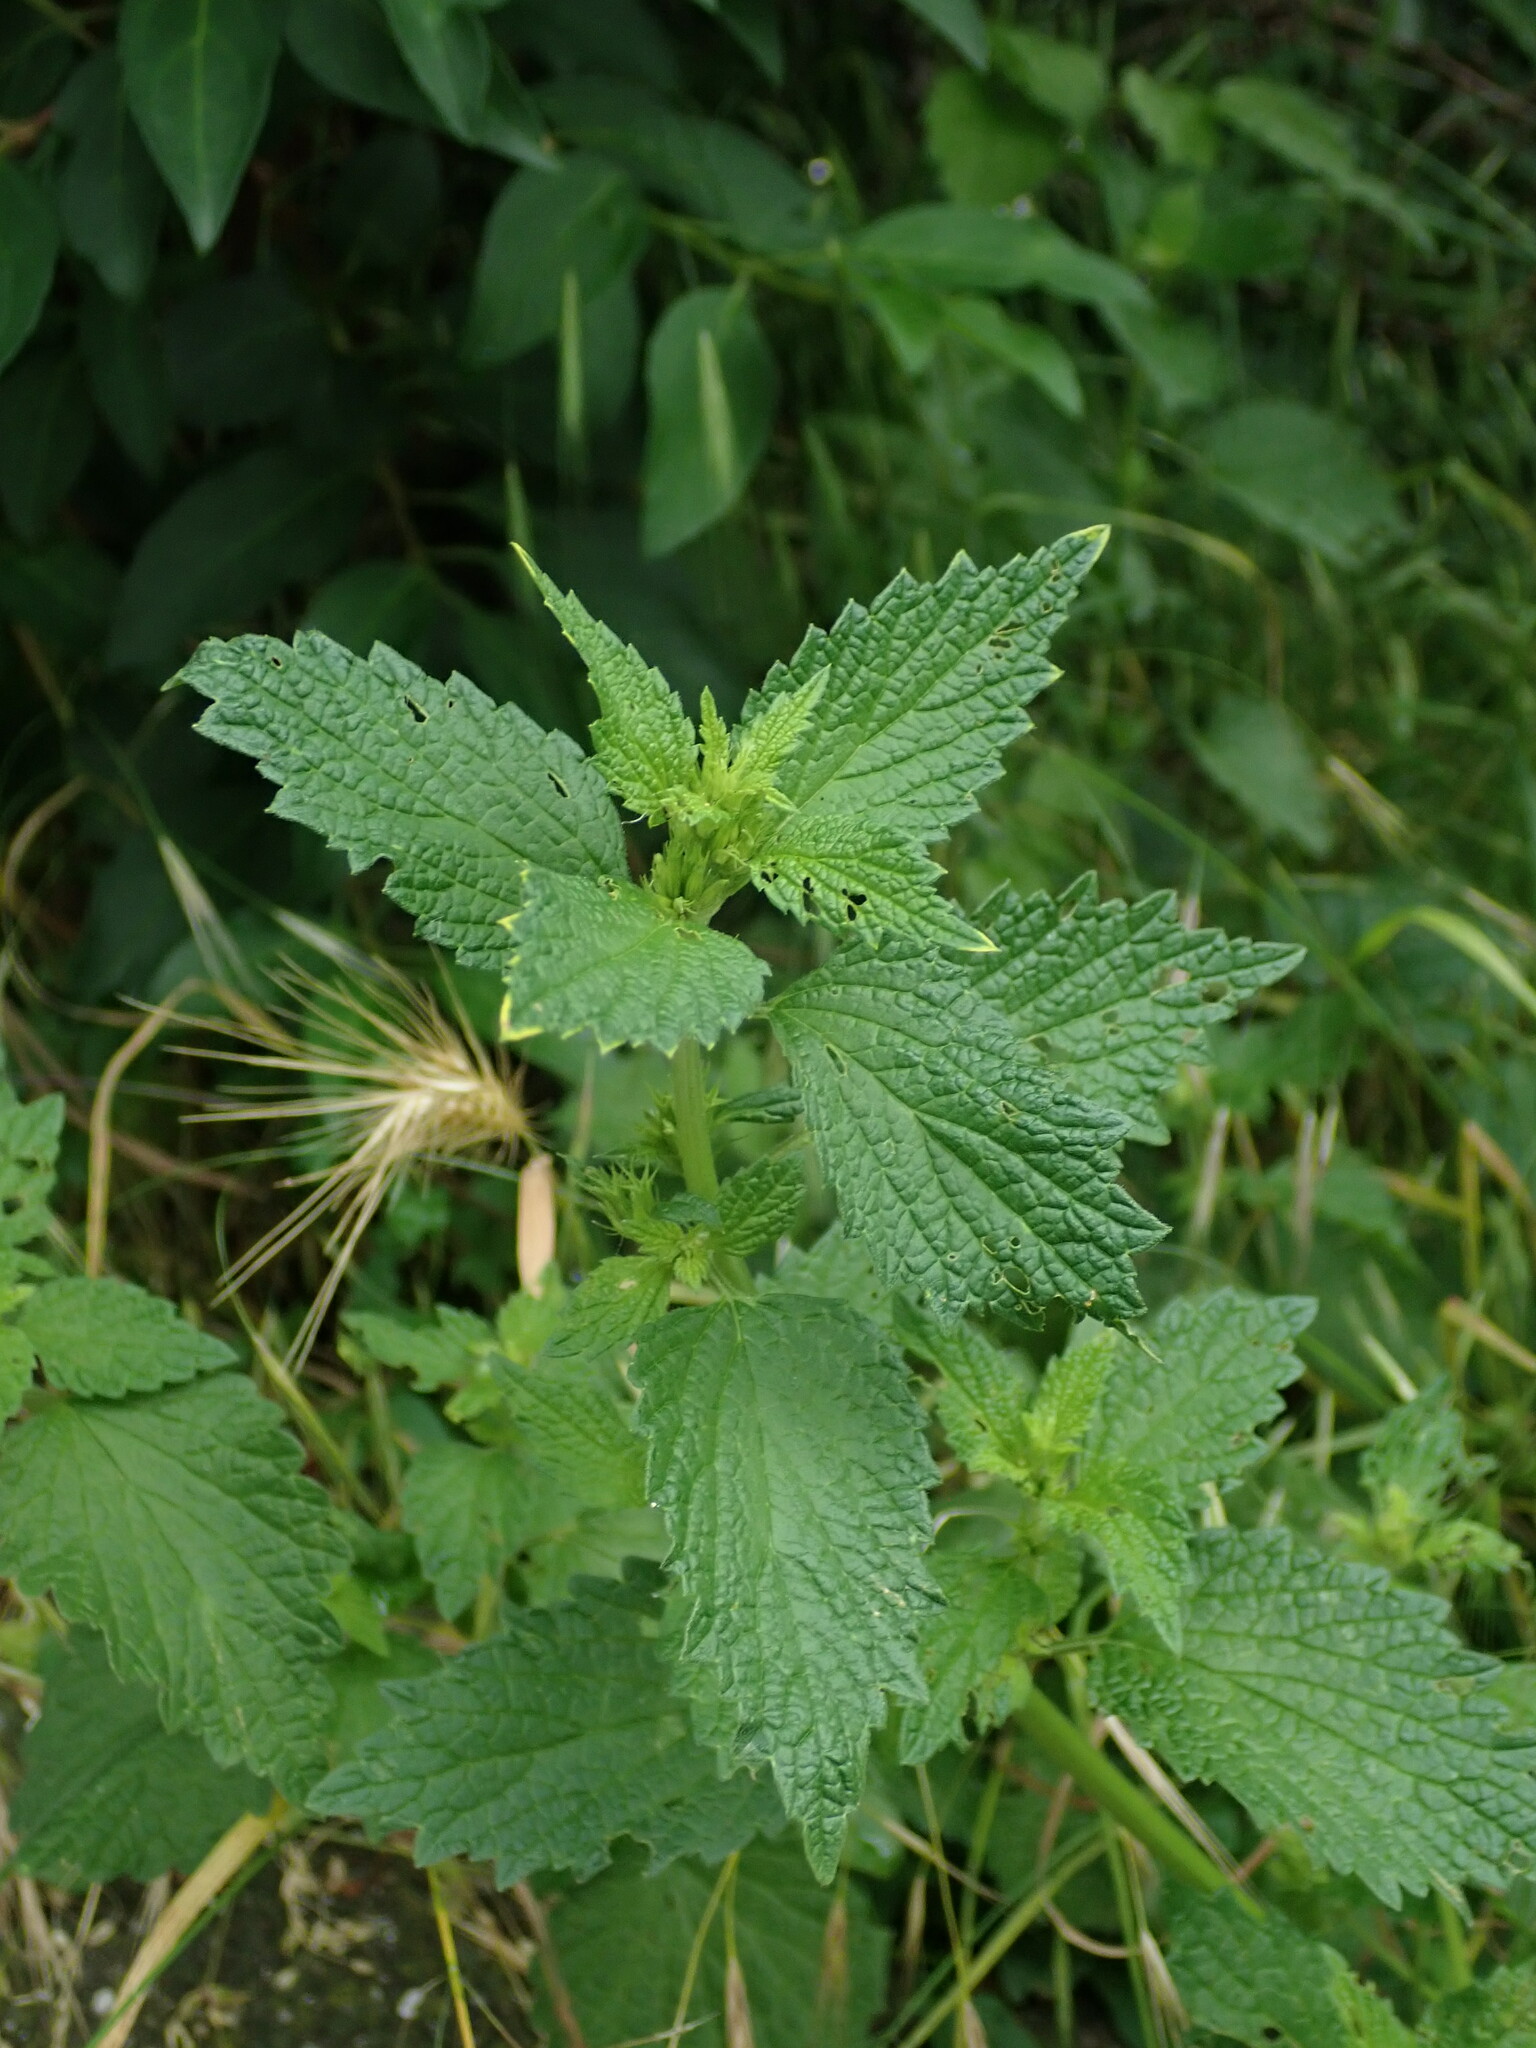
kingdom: Plantae
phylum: Tracheophyta
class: Magnoliopsida
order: Lamiales
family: Lamiaceae
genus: Ballota
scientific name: Ballota nigra
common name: Black horehound
